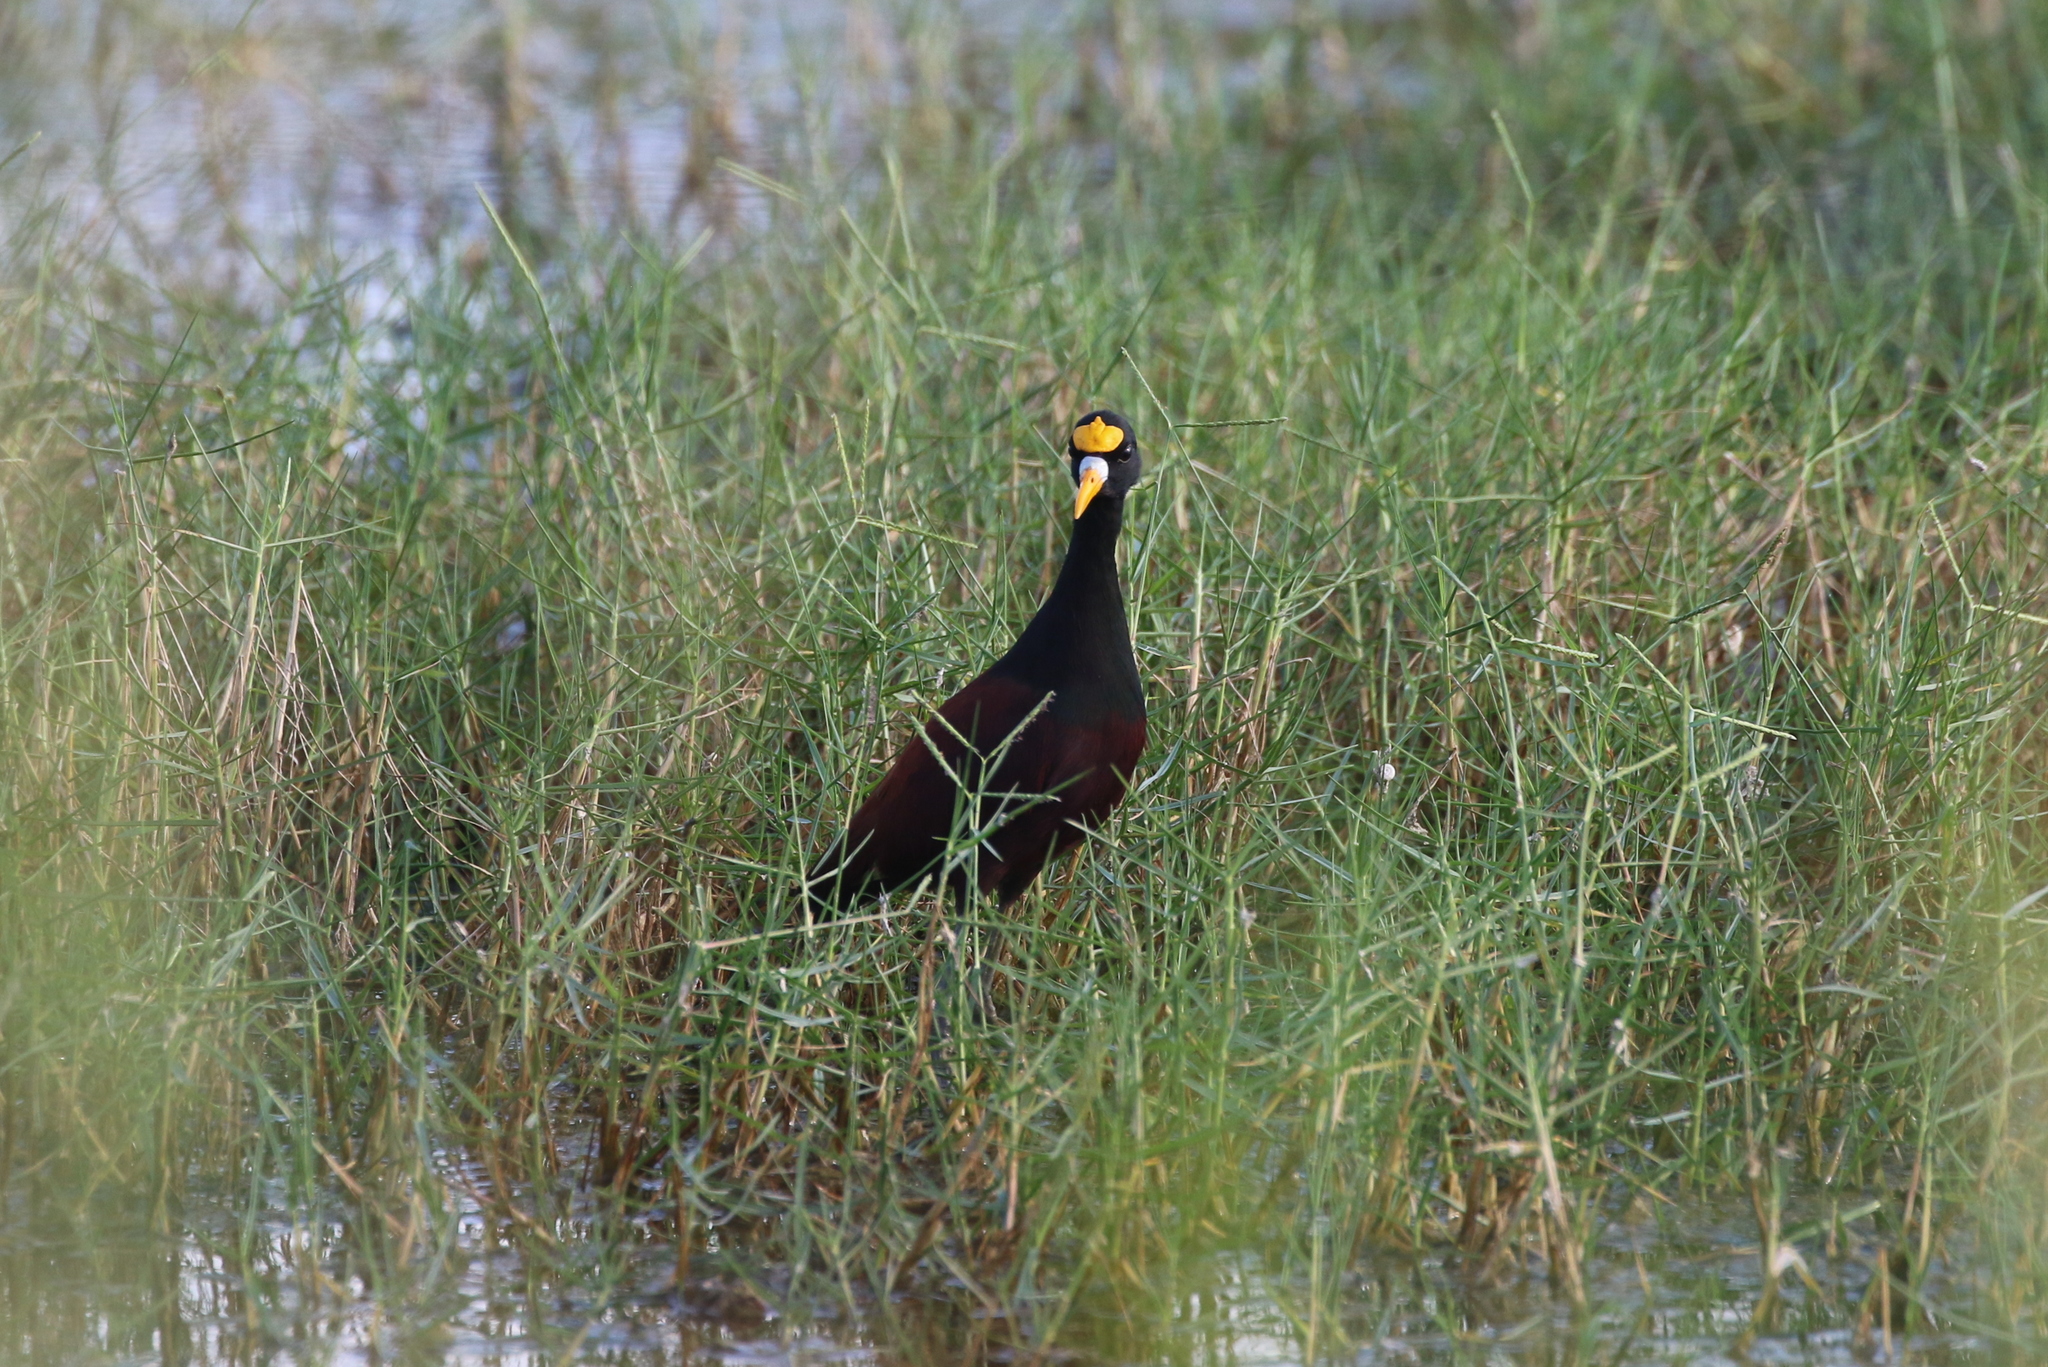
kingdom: Animalia
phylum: Chordata
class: Aves
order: Charadriiformes
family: Jacanidae
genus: Jacana
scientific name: Jacana spinosa
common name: Northern jacana
